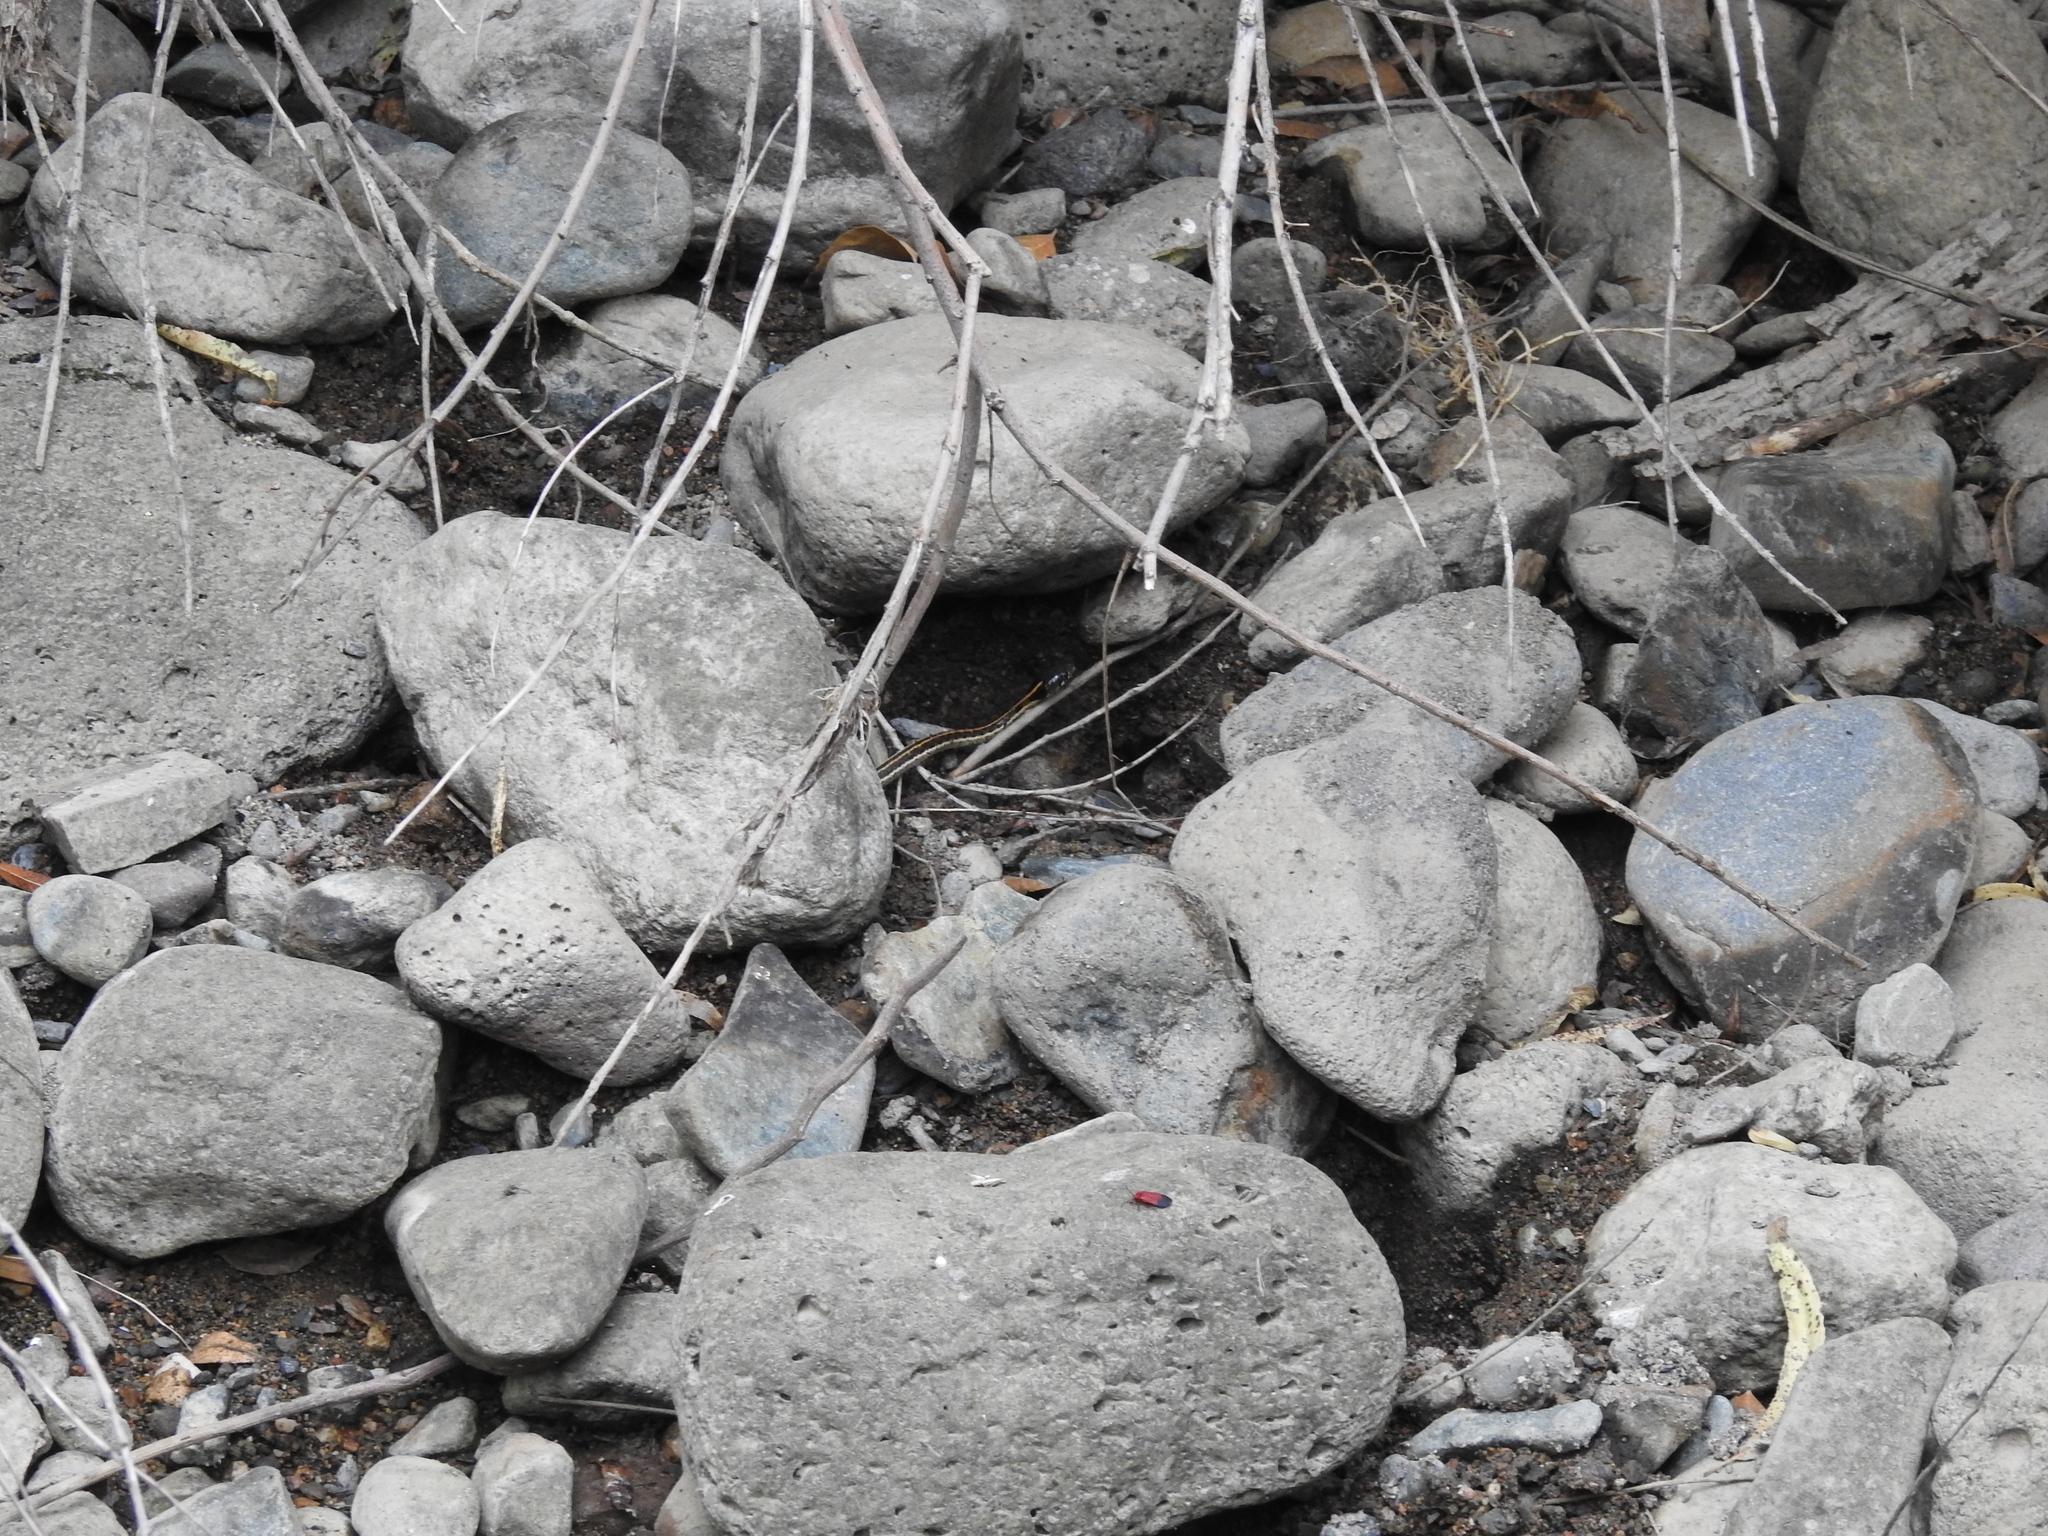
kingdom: Animalia
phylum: Chordata
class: Squamata
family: Colubridae
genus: Thamnophis
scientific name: Thamnophis cyrtopsis
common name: Black-necked gartersnake
